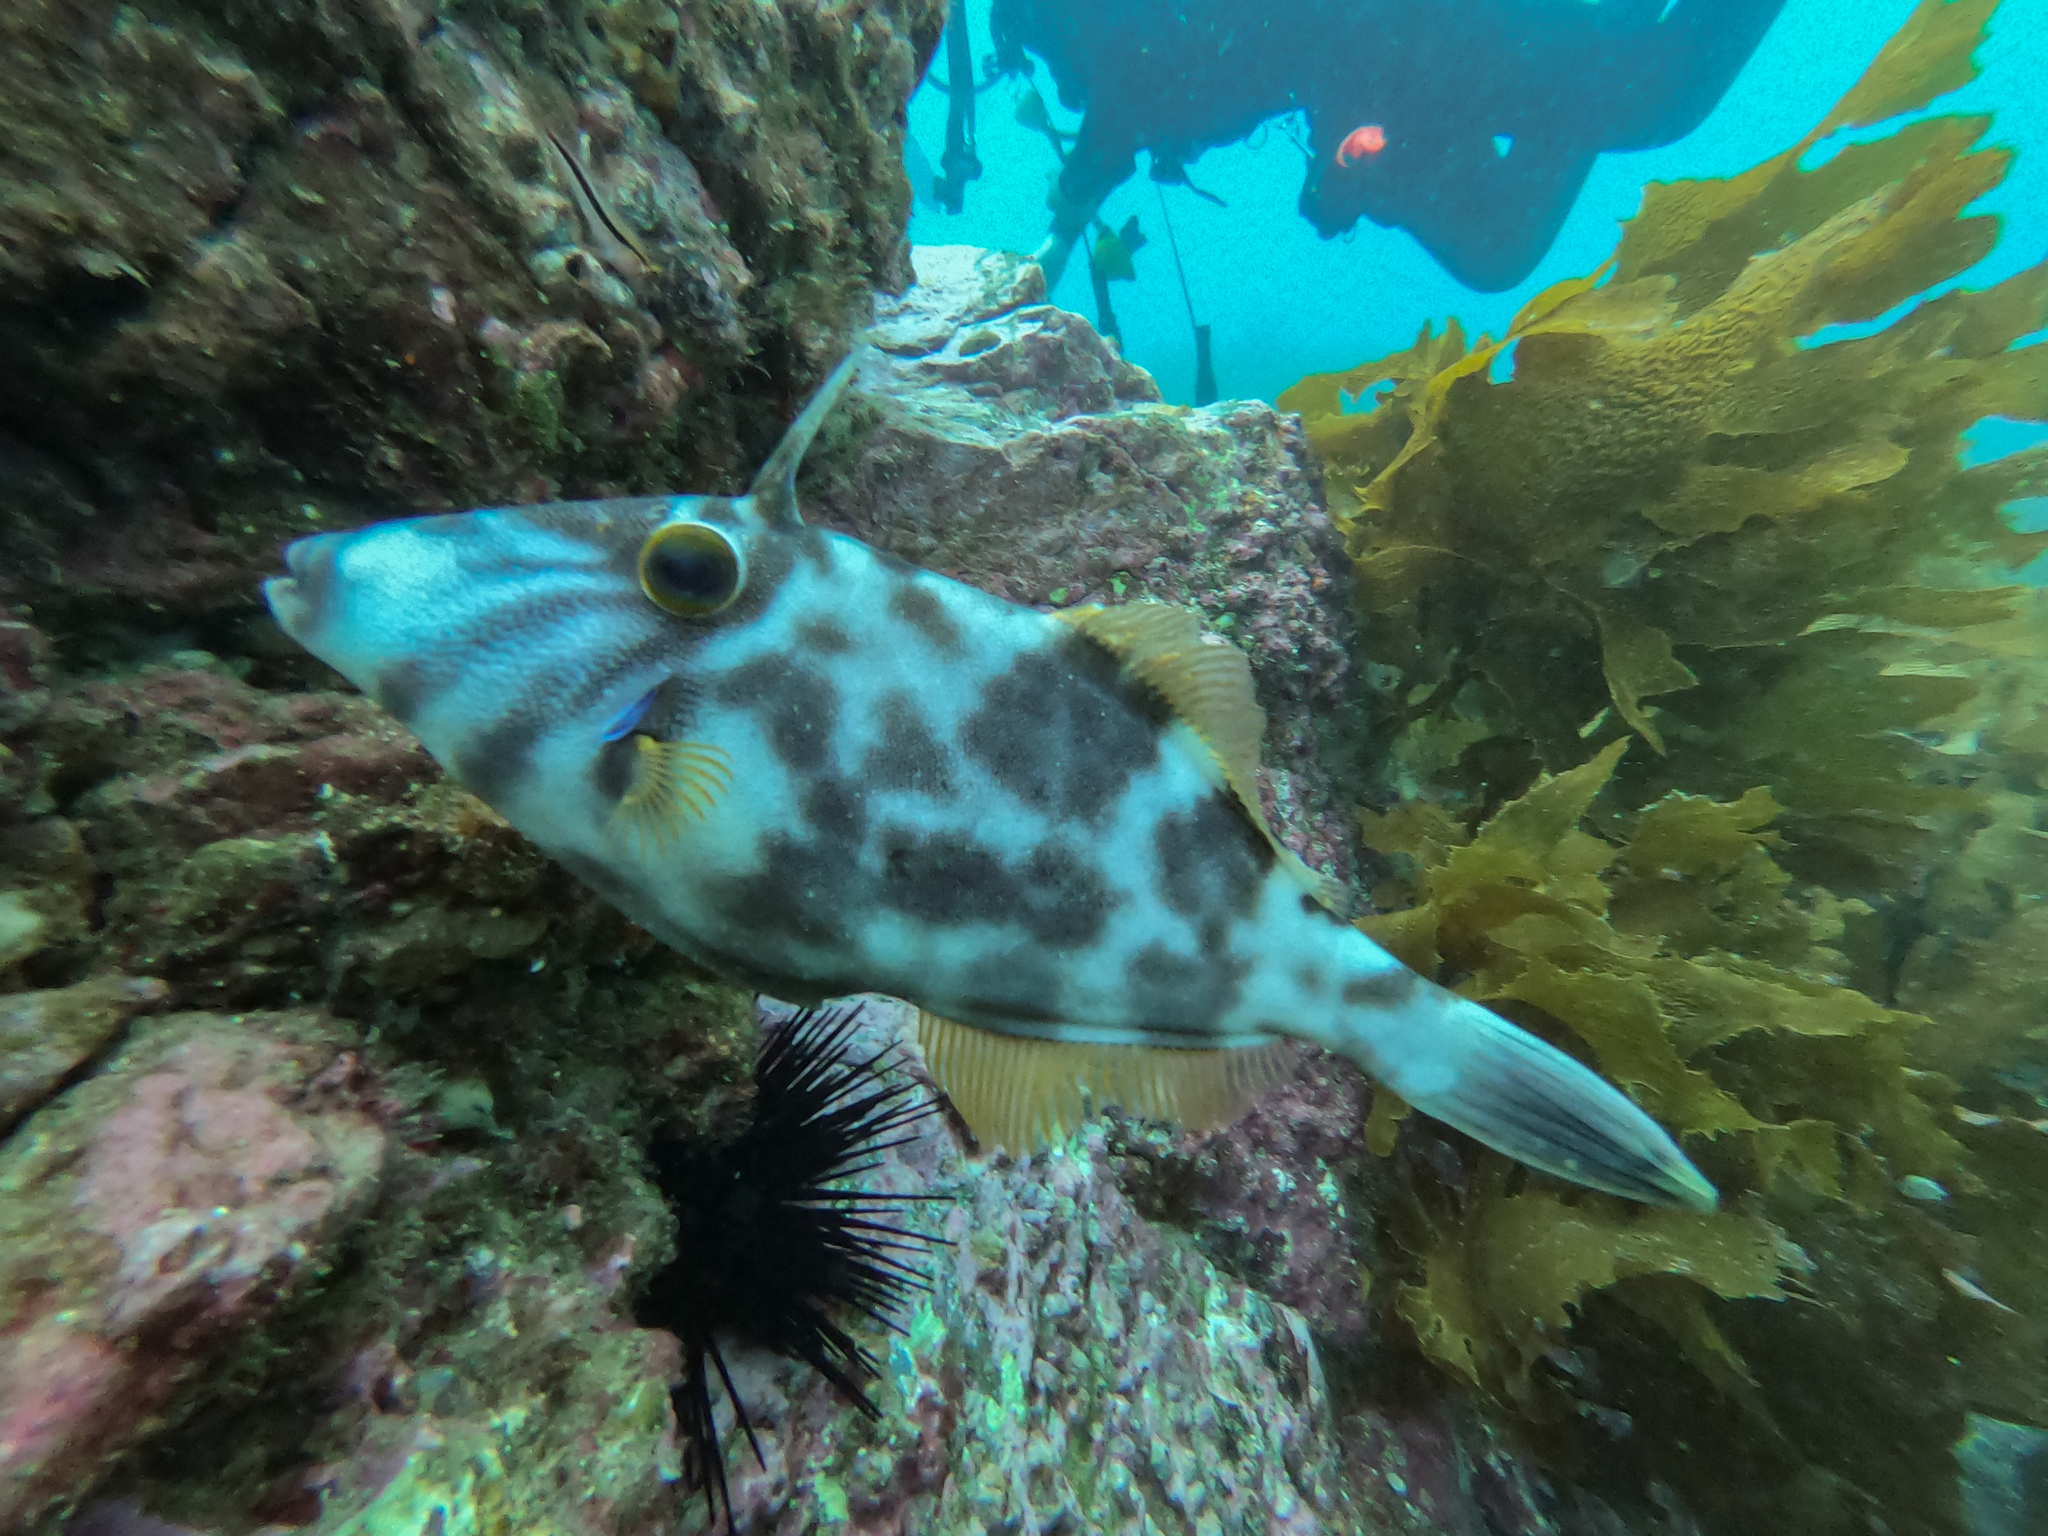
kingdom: Animalia
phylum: Chordata
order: Tetraodontiformes
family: Monacanthidae
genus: Meuschenia
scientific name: Meuschenia scaber
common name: Cosmopolitan leatherjacket
